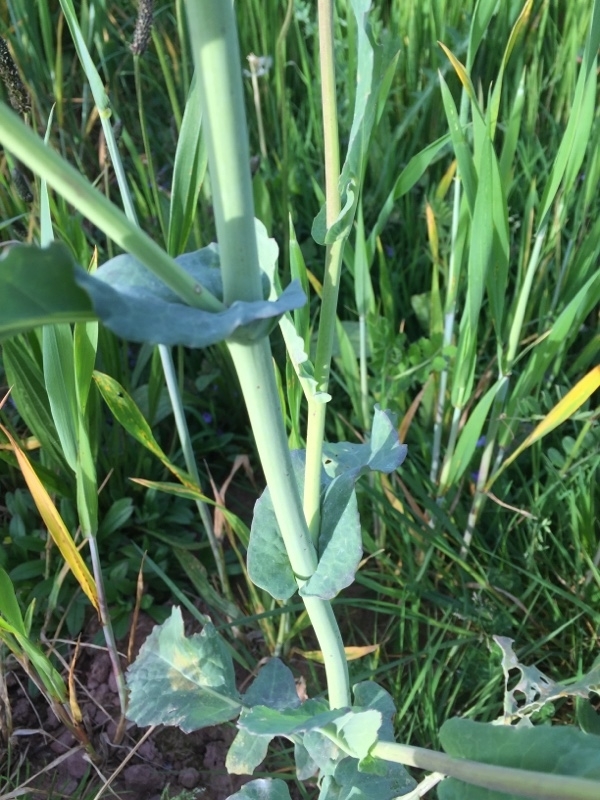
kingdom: Plantae
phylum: Tracheophyta
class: Magnoliopsida
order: Brassicales
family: Brassicaceae
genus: Brassica
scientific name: Brassica napus
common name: Rape
